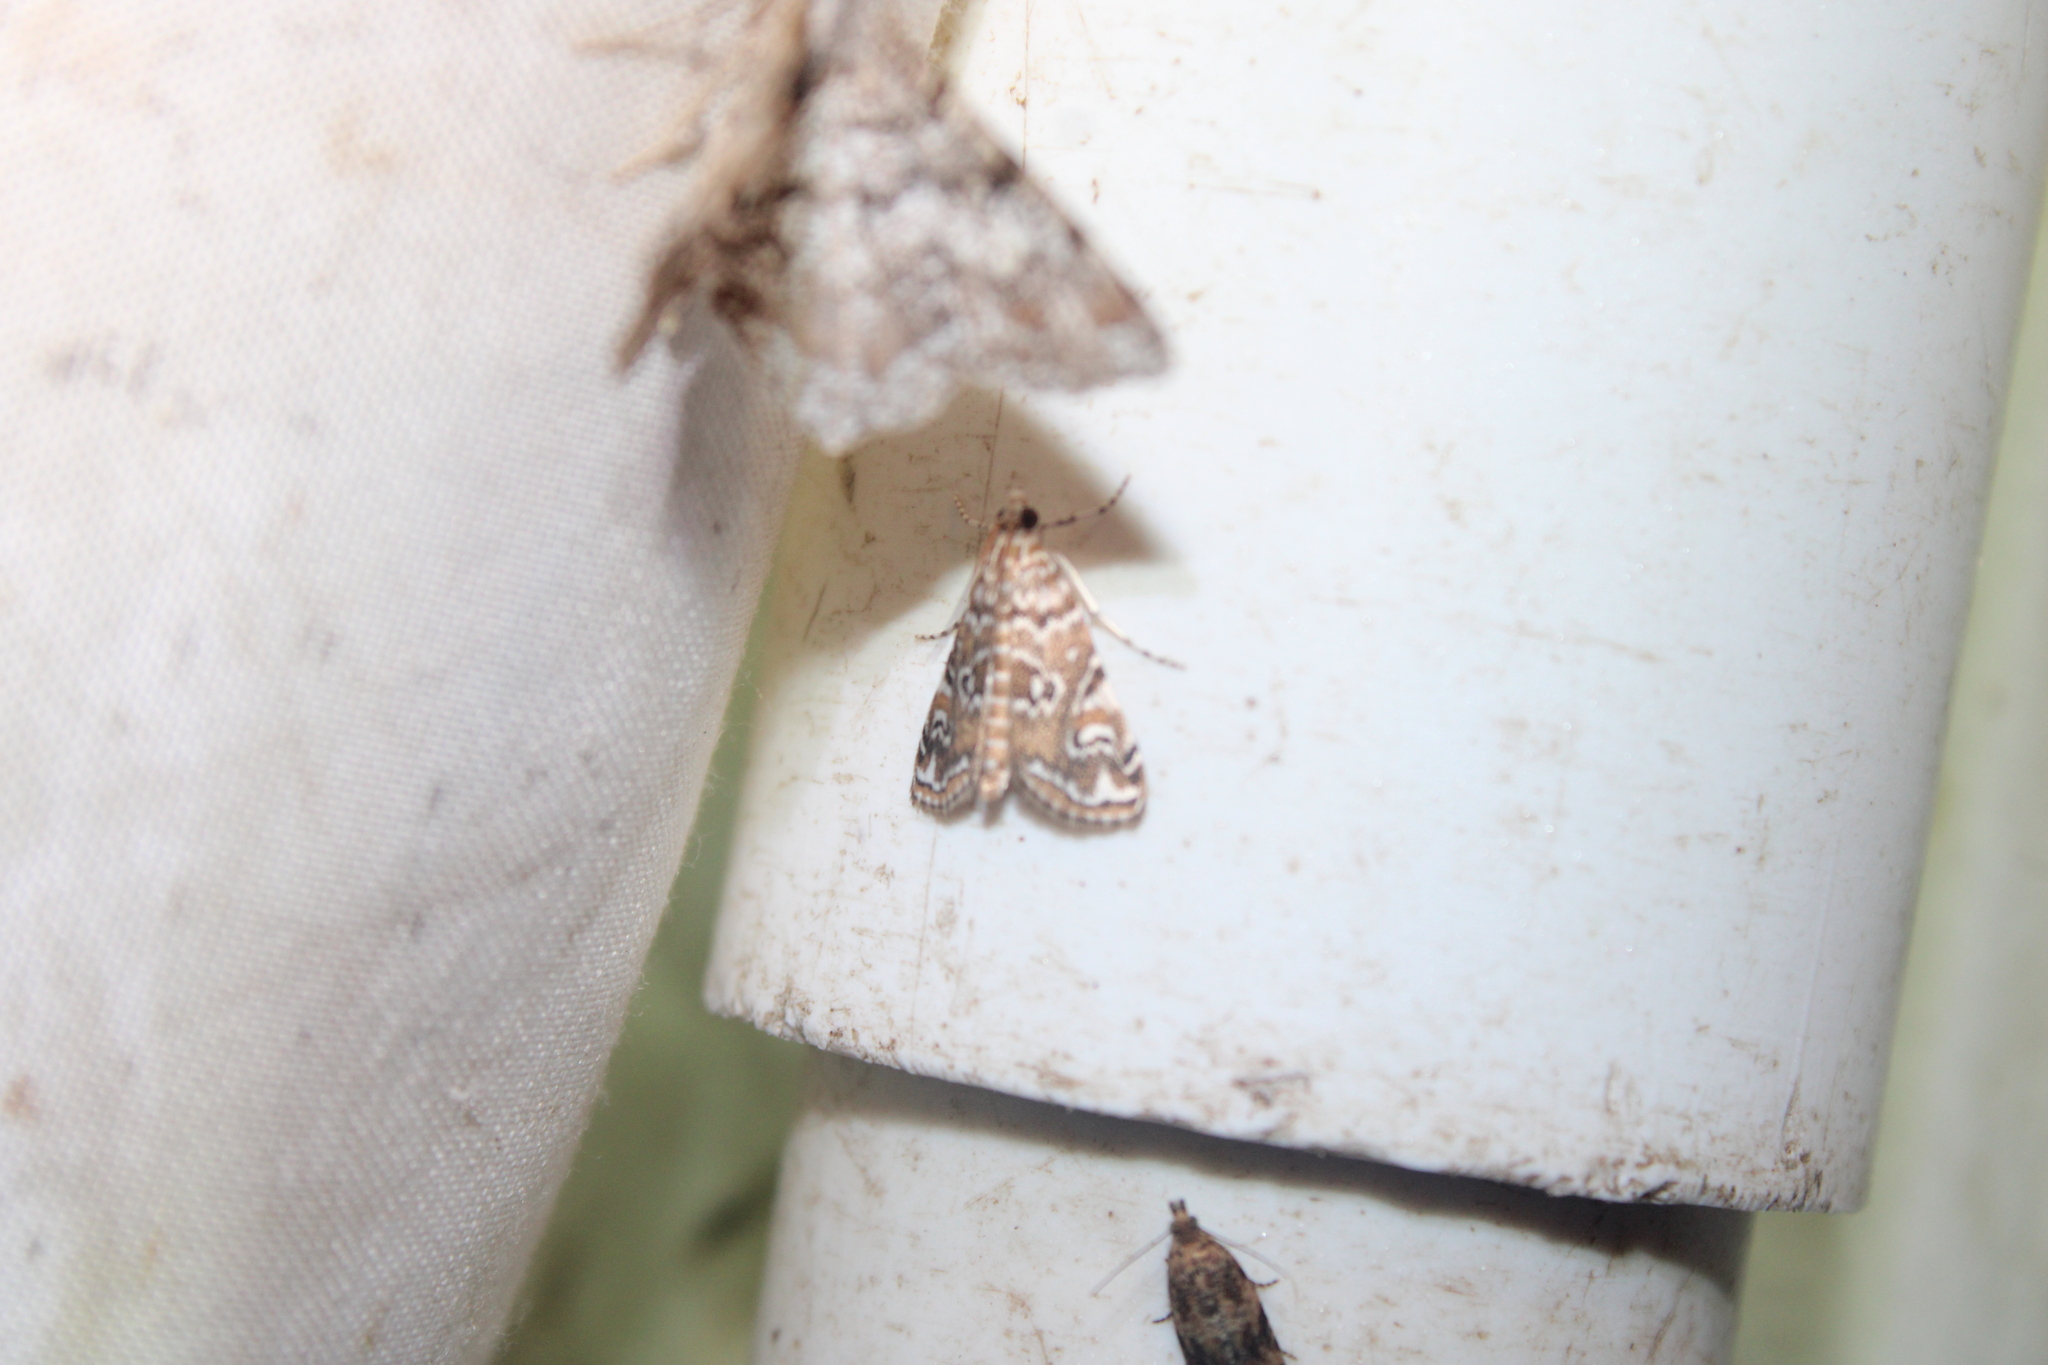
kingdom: Animalia
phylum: Arthropoda
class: Insecta
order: Lepidoptera
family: Crambidae
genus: Elophila
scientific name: Elophila gyralis
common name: Waterlily borer moth
